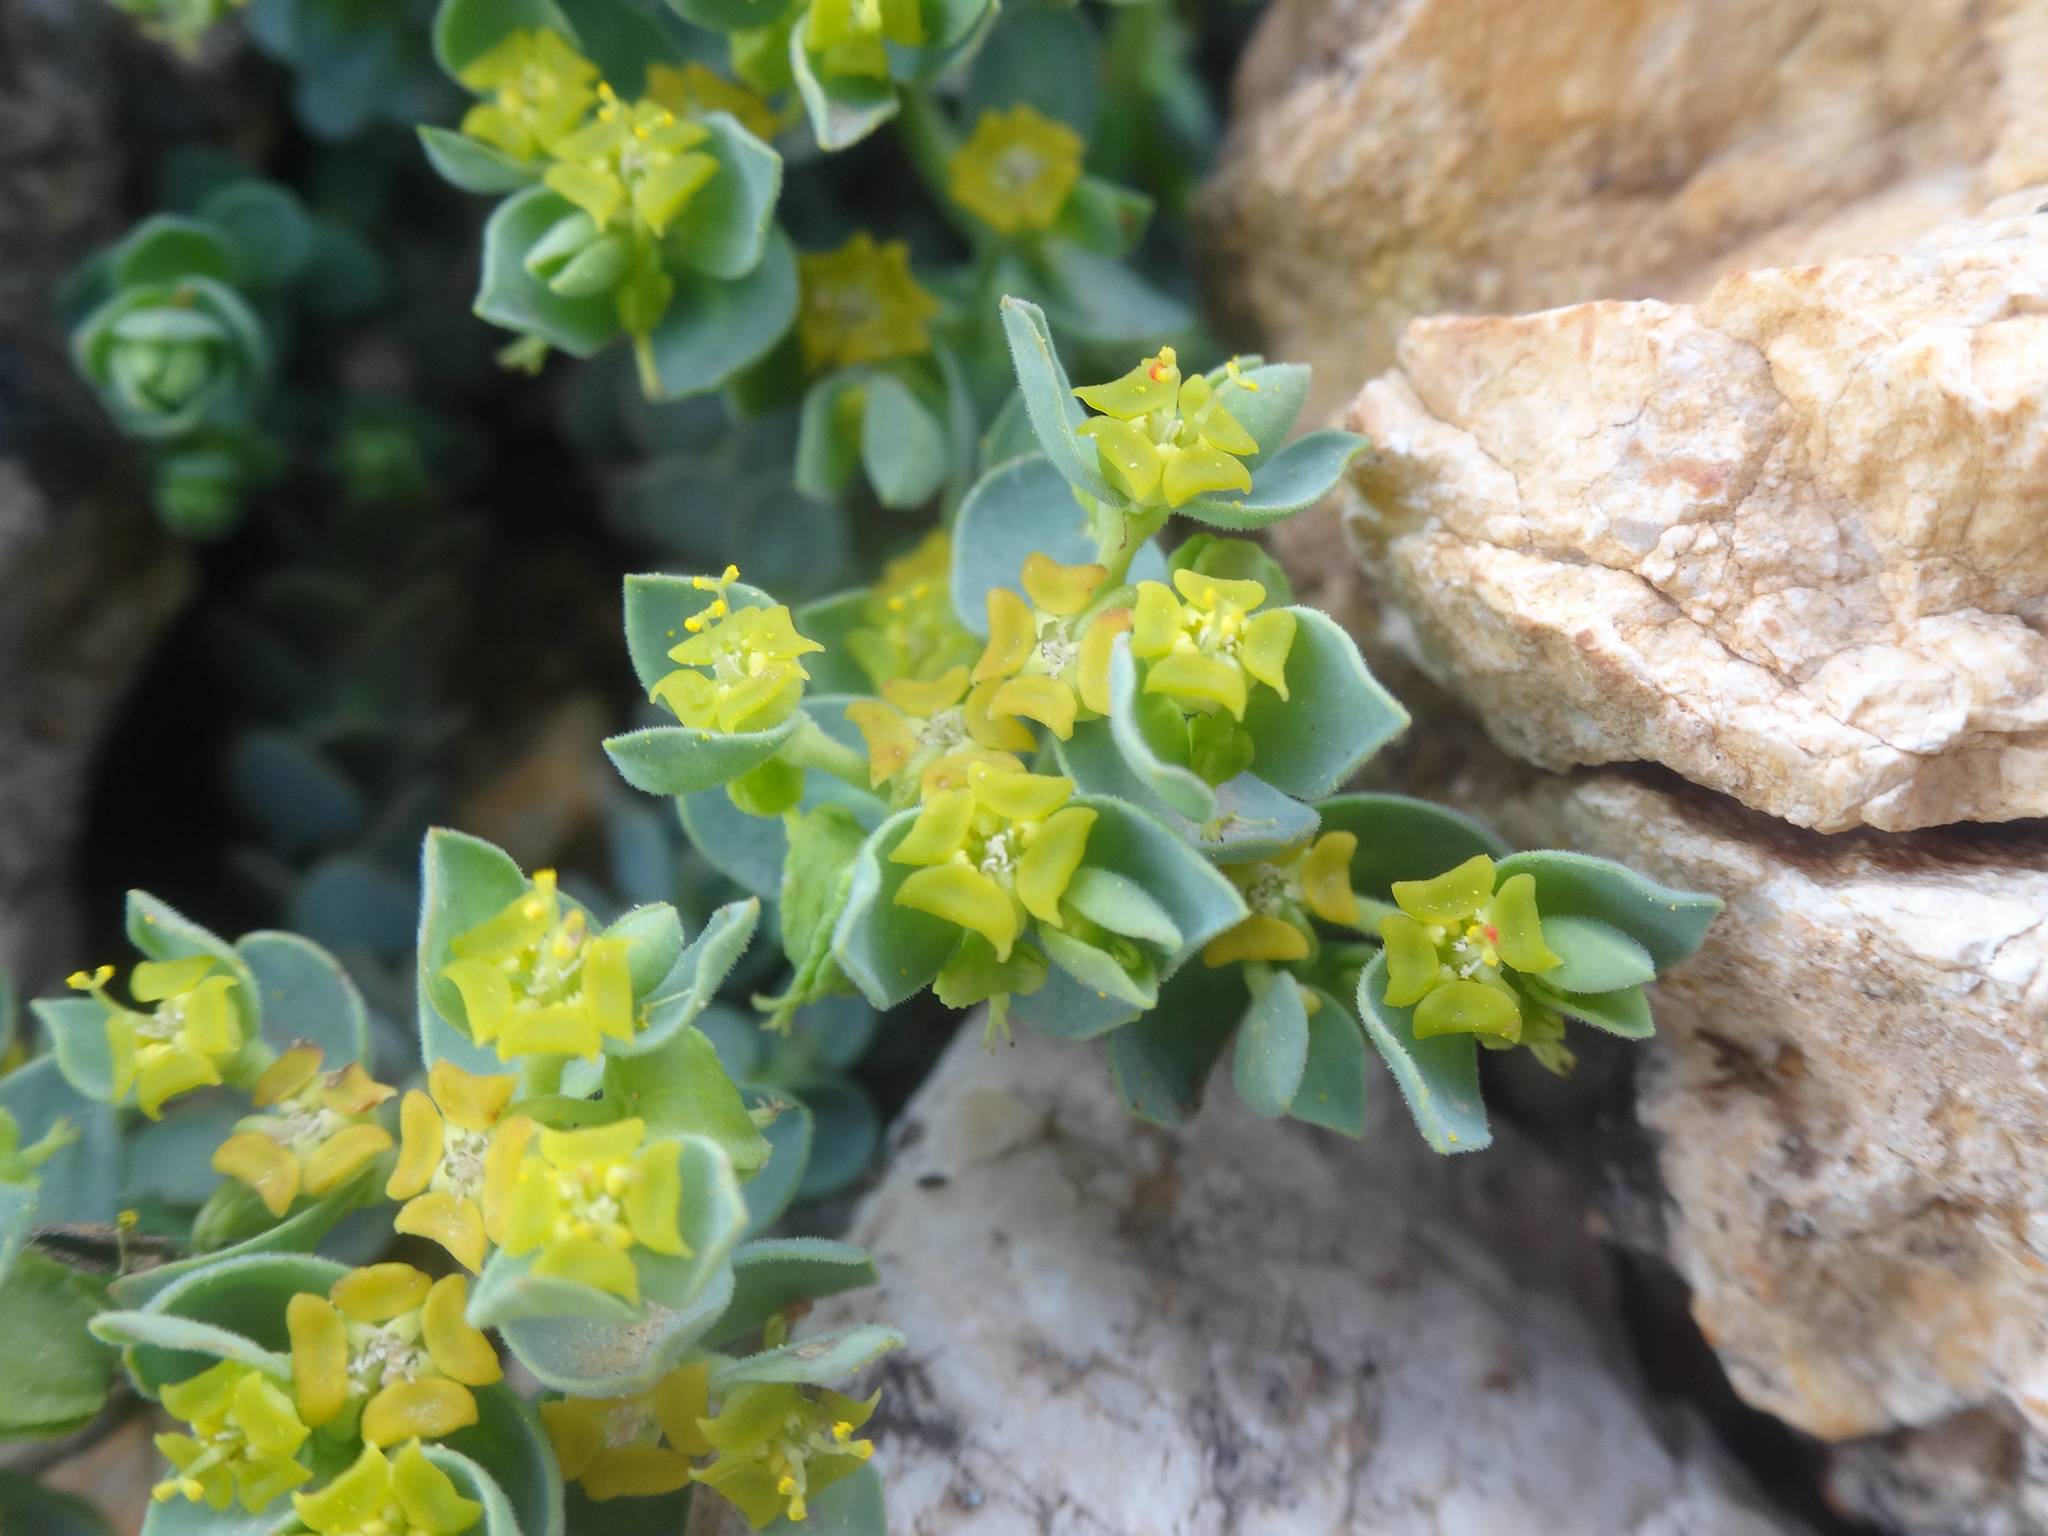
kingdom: Plantae
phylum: Tracheophyta
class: Magnoliopsida
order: Malpighiales
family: Euphorbiaceae
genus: Euphorbia
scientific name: Euphorbia herniariifolia
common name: Herniaria-leaf spurge
